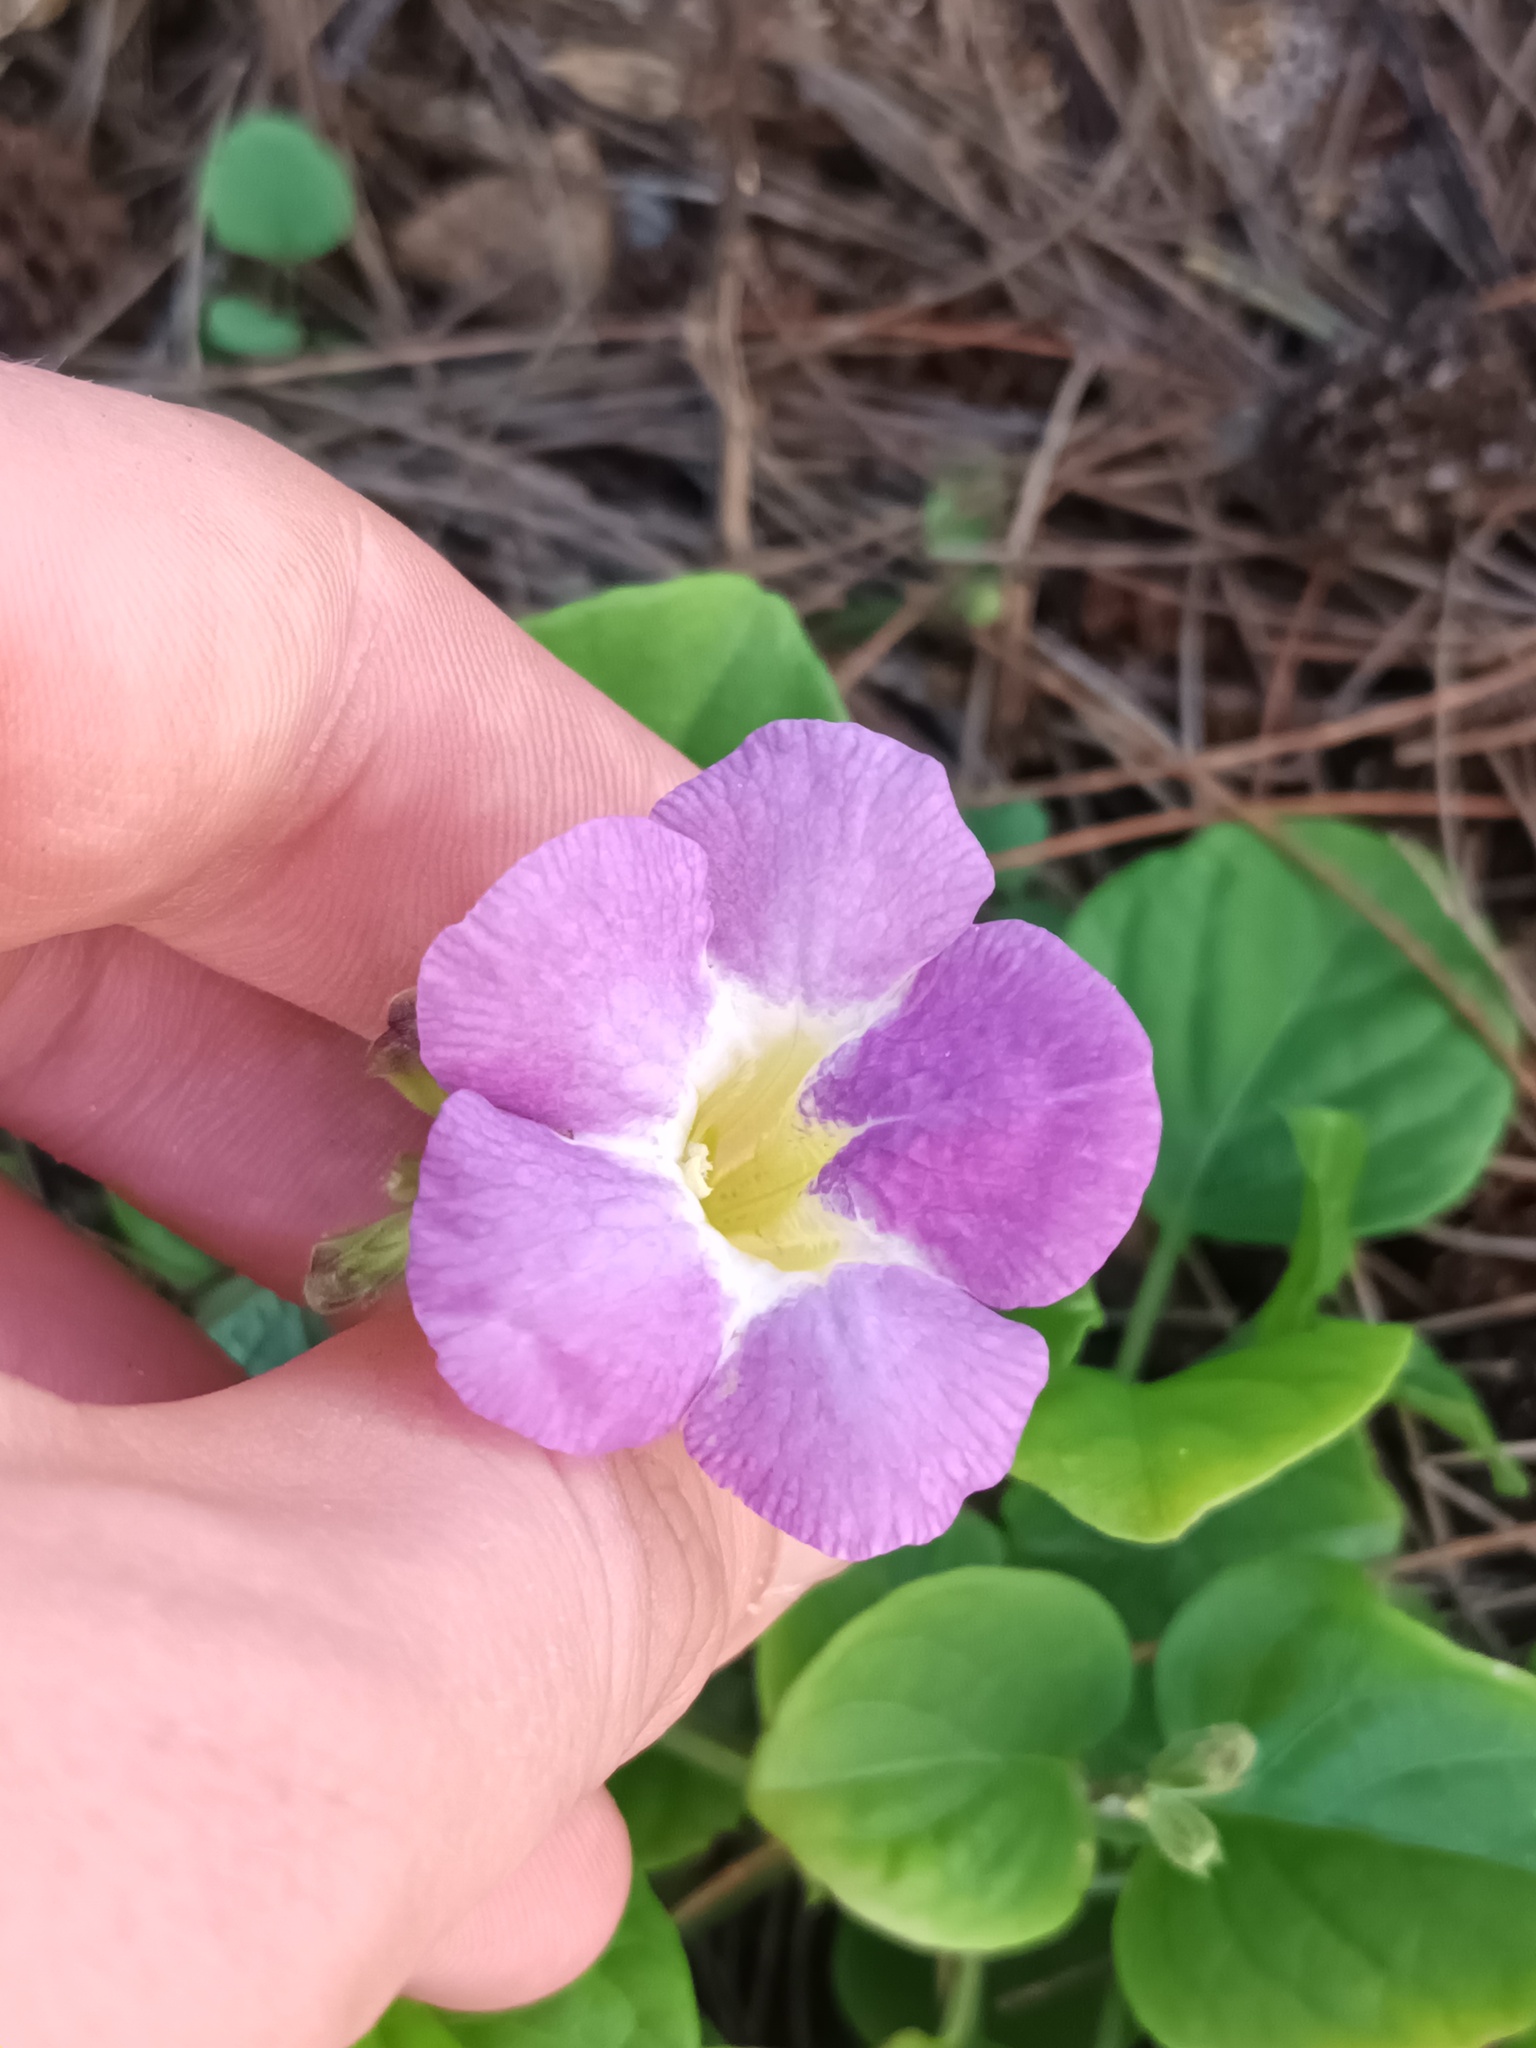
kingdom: Plantae
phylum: Tracheophyta
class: Magnoliopsida
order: Lamiales
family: Acanthaceae
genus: Asystasia
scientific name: Asystasia gangetica
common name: Chinese violet
